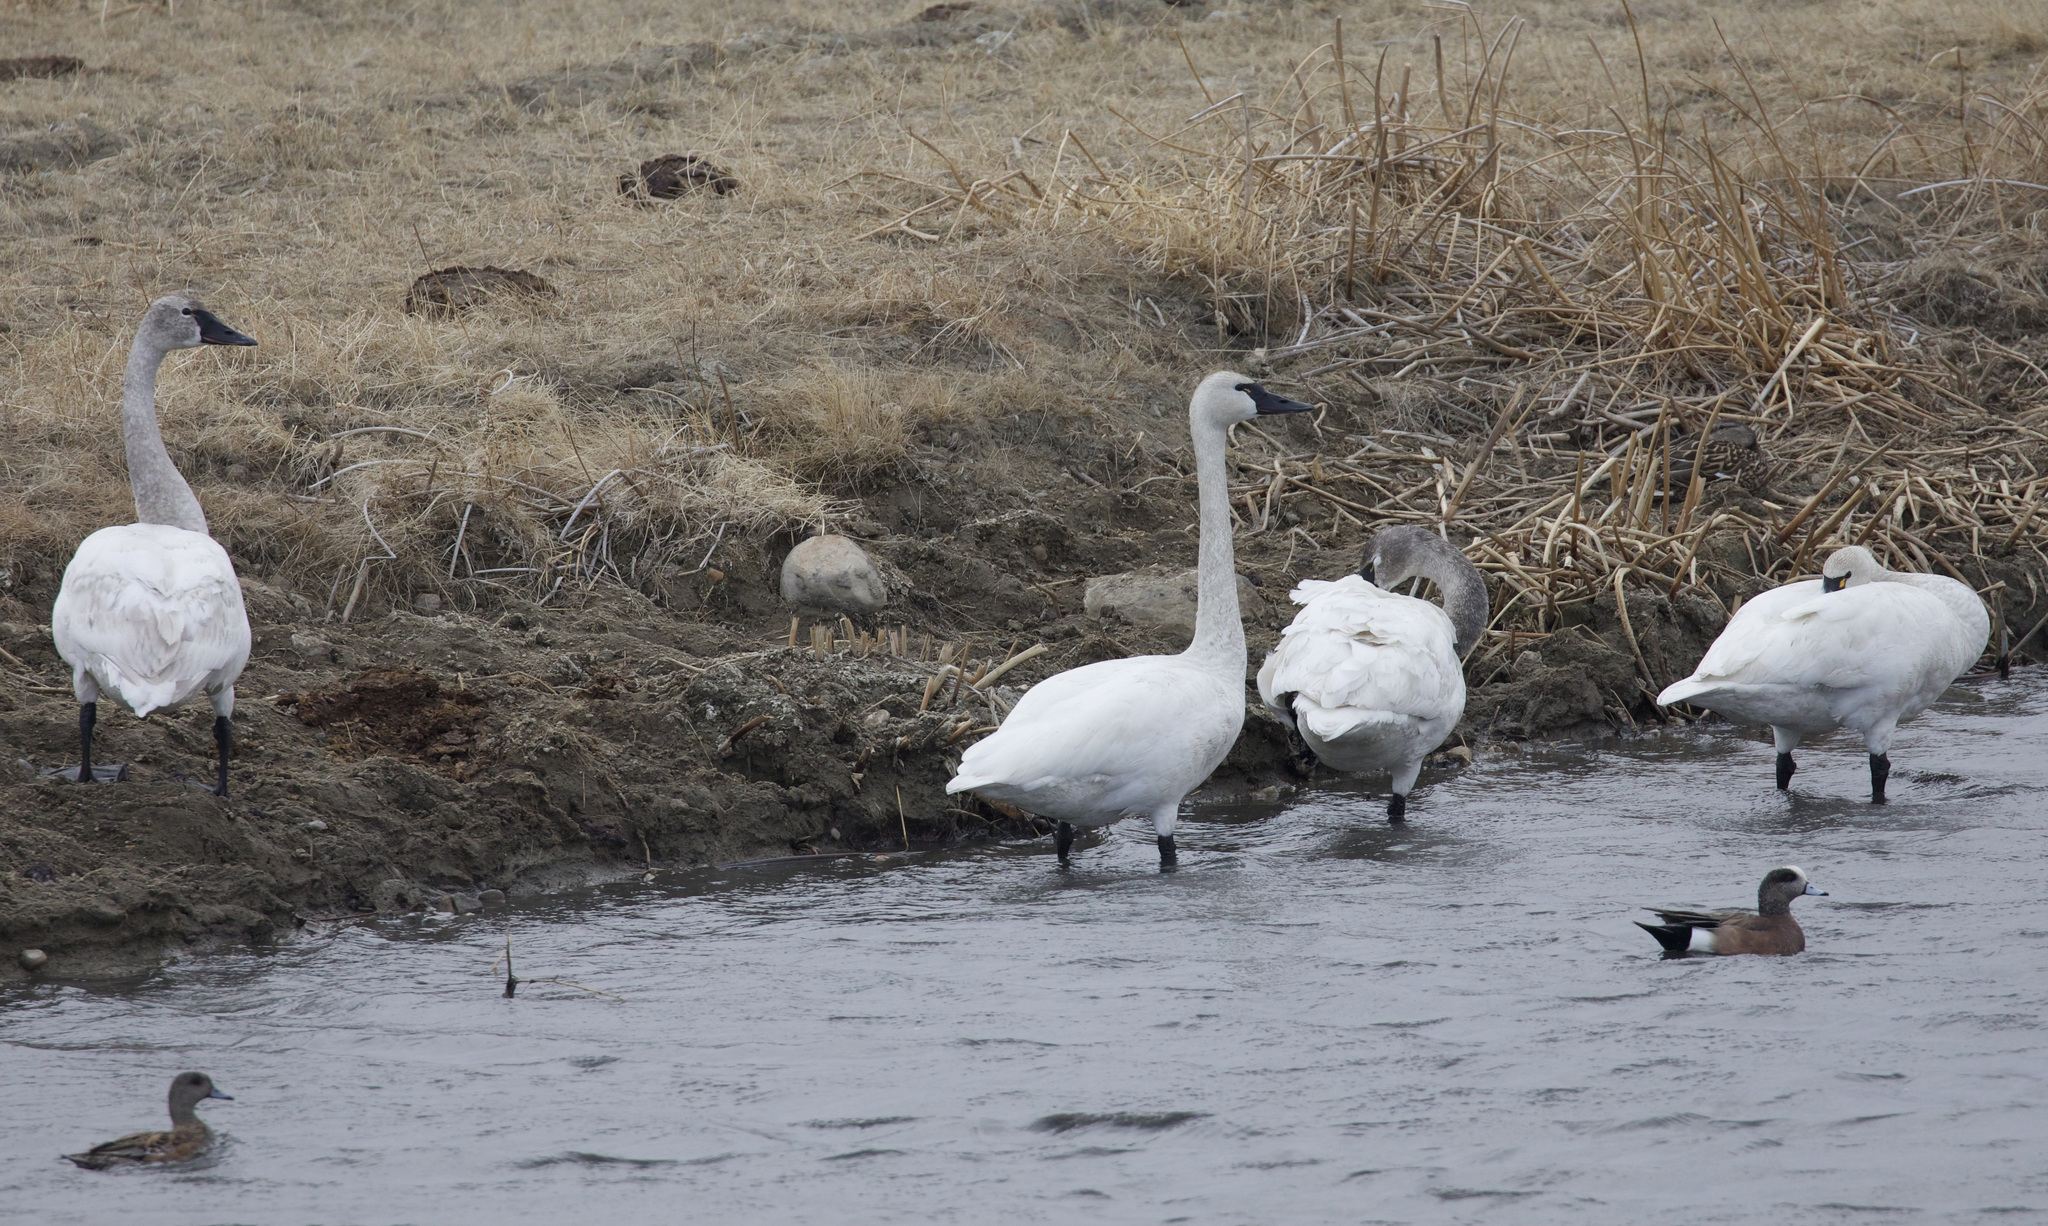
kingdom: Animalia
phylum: Chordata
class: Aves
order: Anseriformes
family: Anatidae
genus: Cygnus
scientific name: Cygnus columbianus
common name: Tundra swan
